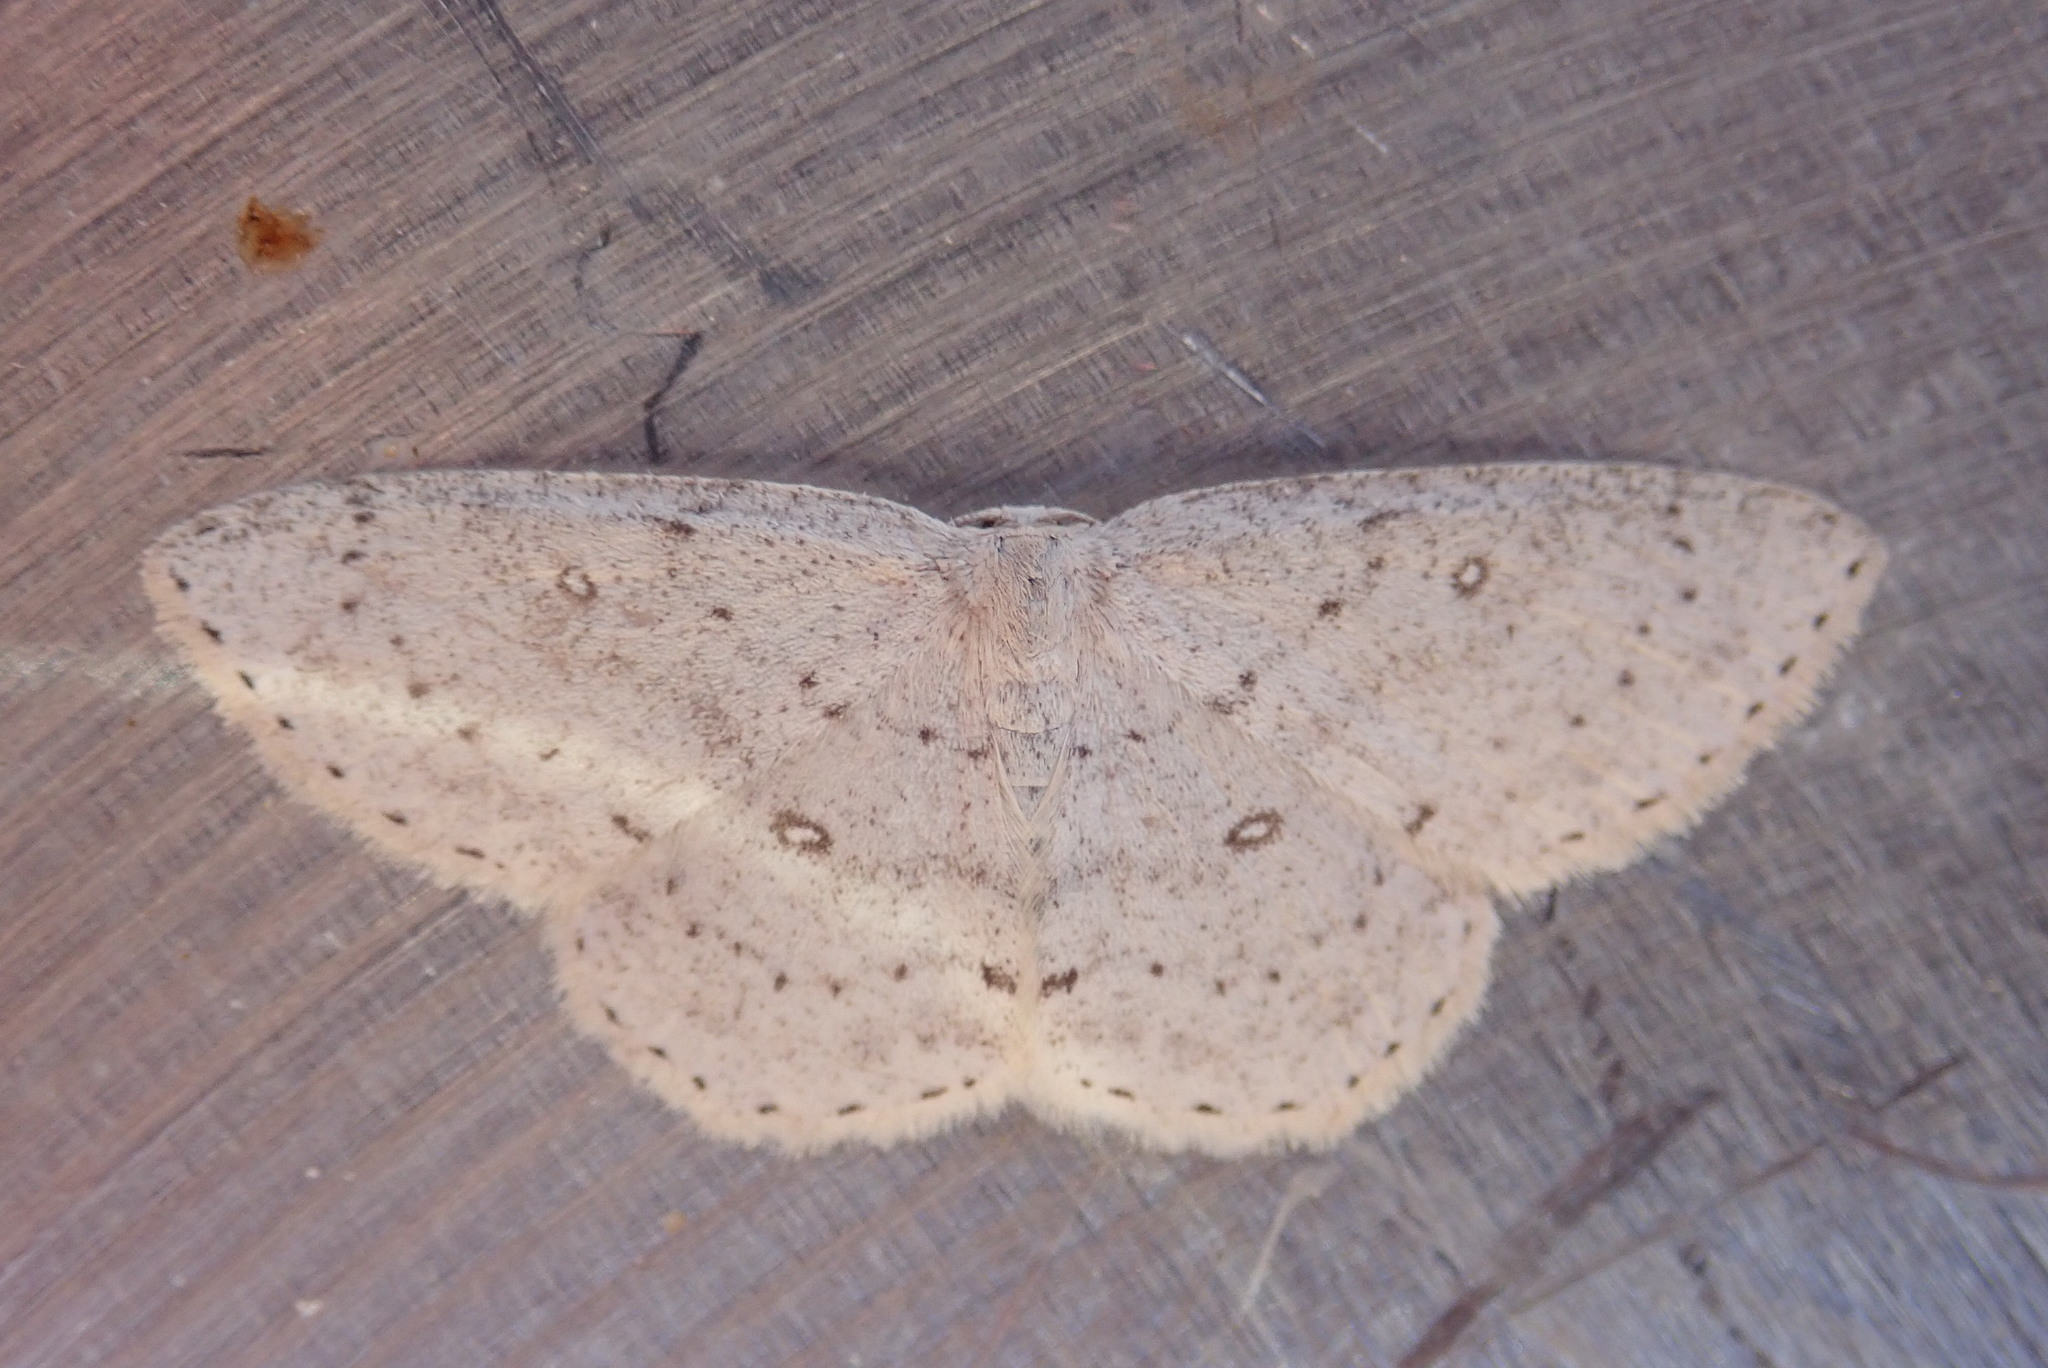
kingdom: Animalia
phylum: Arthropoda
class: Insecta
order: Lepidoptera
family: Geometridae
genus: Cyclophora
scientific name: Cyclophora pendulinaria
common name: Sweet fern geometer
